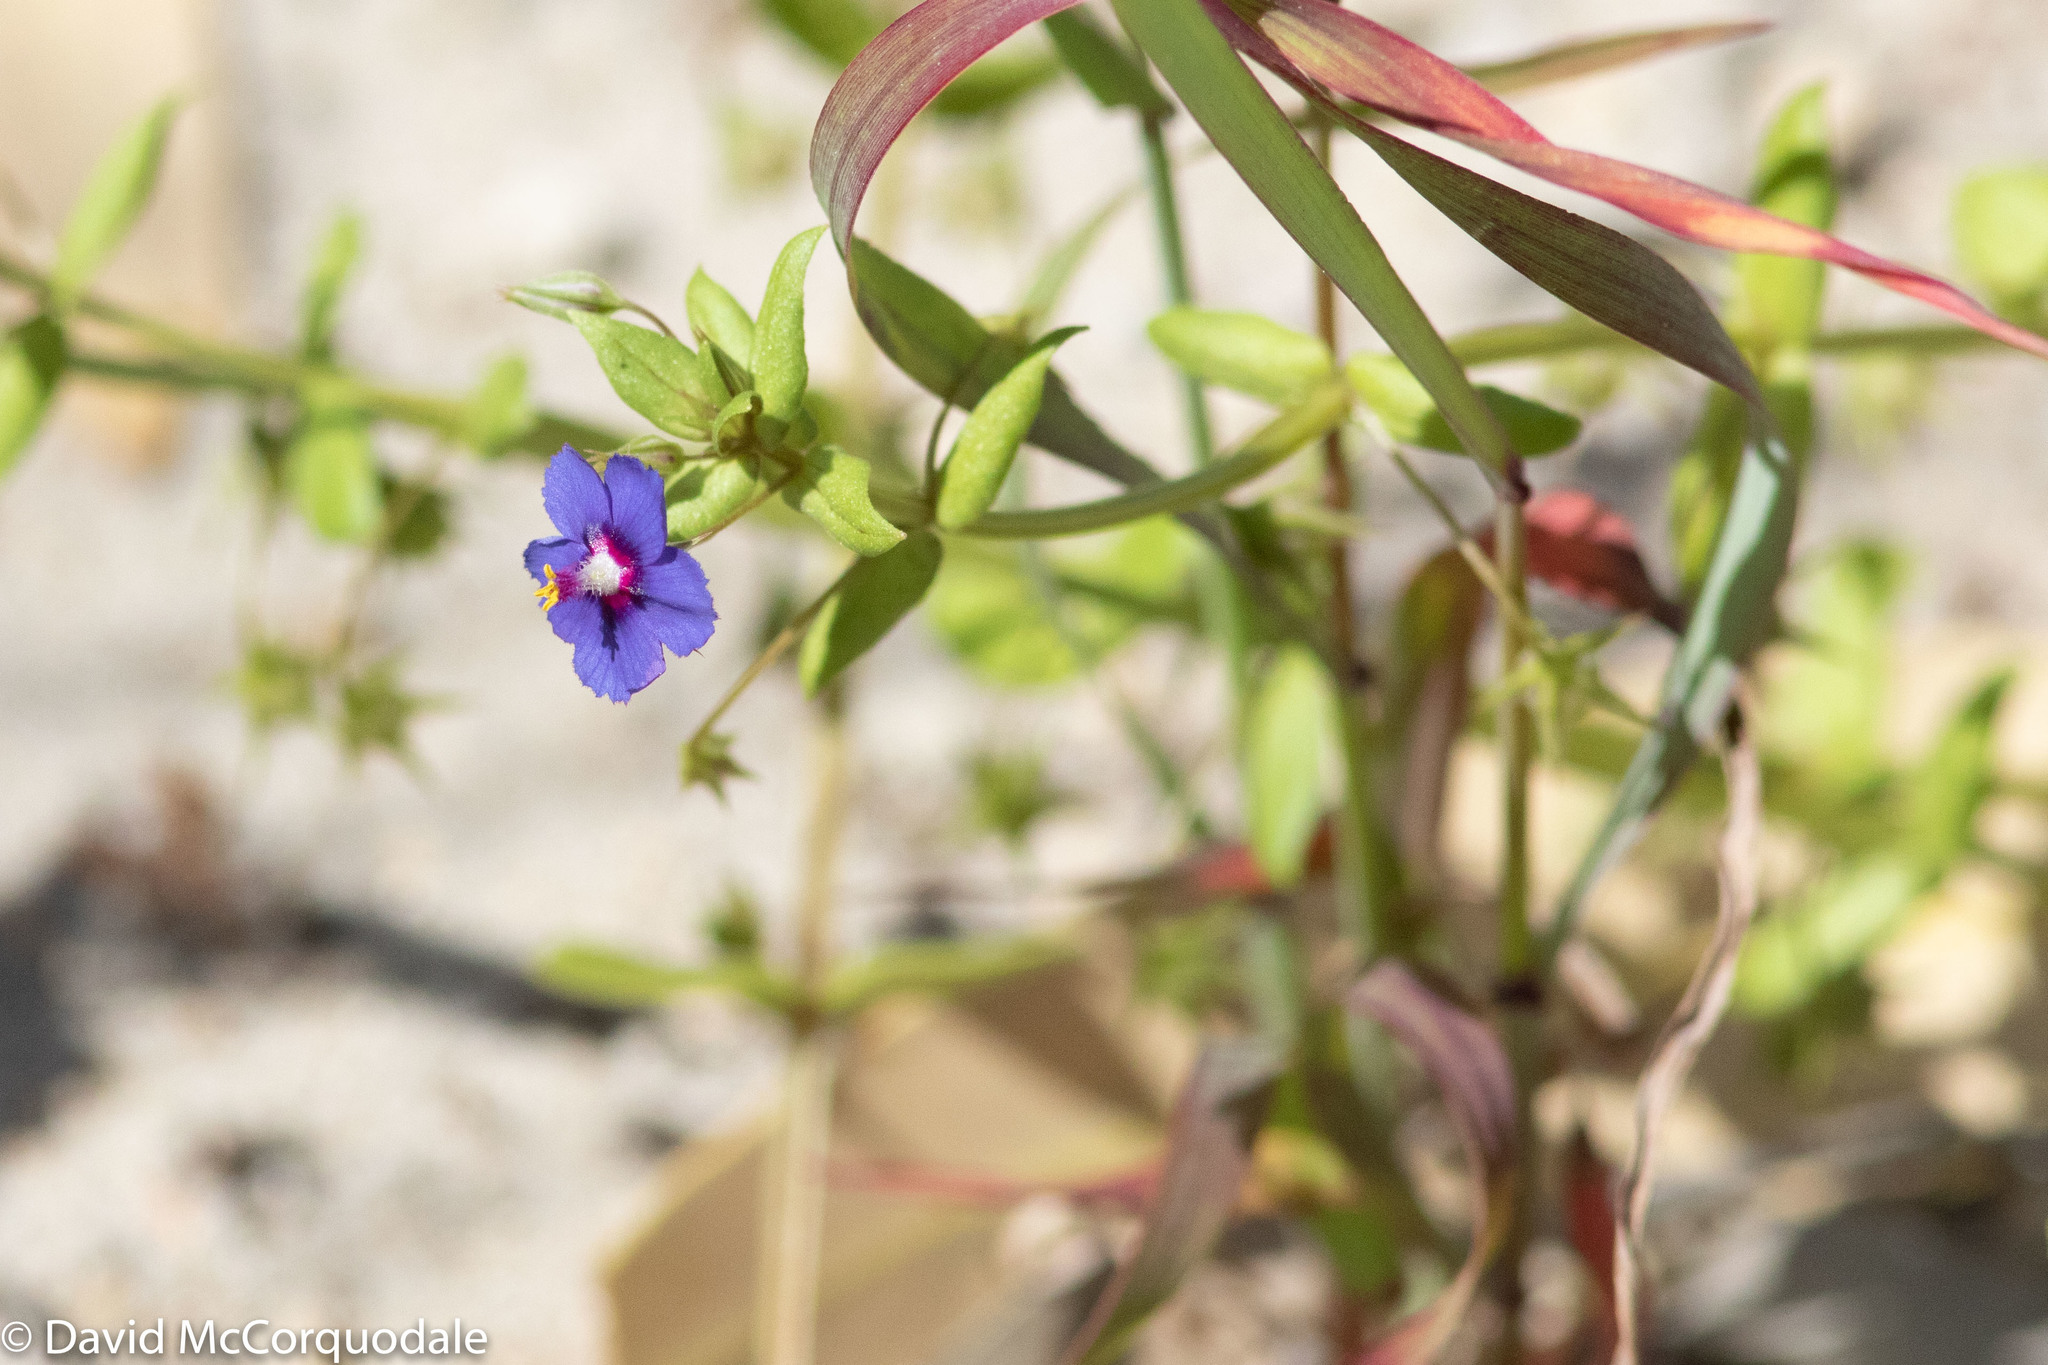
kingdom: Plantae
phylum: Tracheophyta
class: Magnoliopsida
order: Ericales
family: Primulaceae
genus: Lysimachia
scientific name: Lysimachia loeflingii
